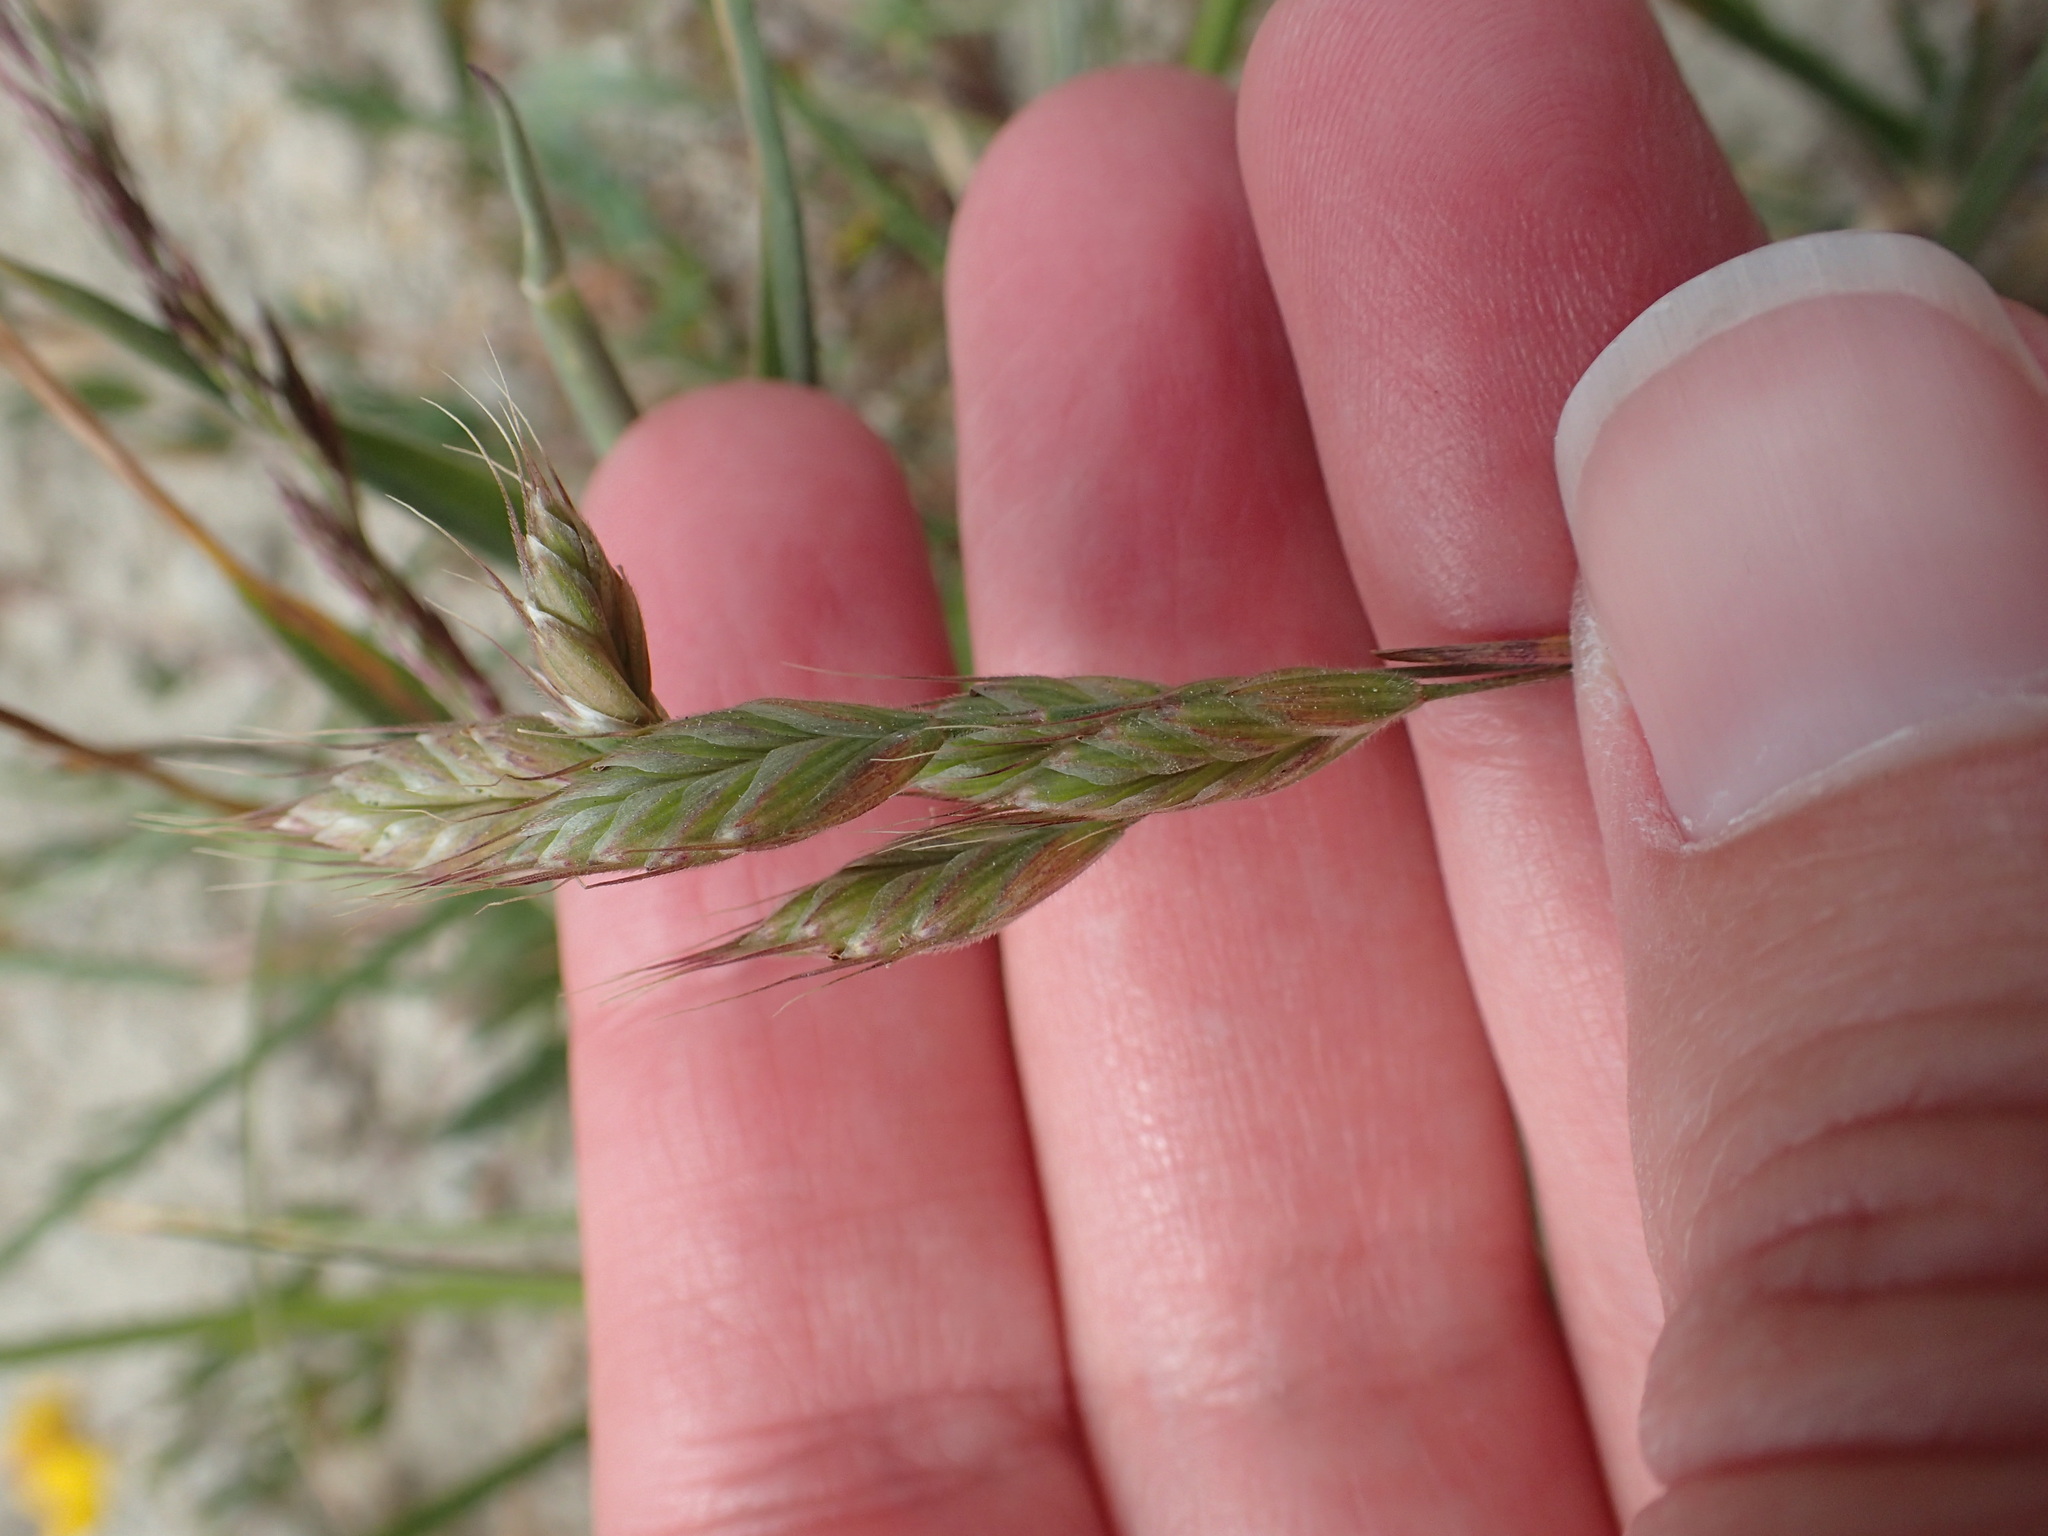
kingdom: Plantae
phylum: Tracheophyta
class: Liliopsida
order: Poales
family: Poaceae
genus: Bromus
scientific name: Bromus hordeaceus
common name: Soft brome
